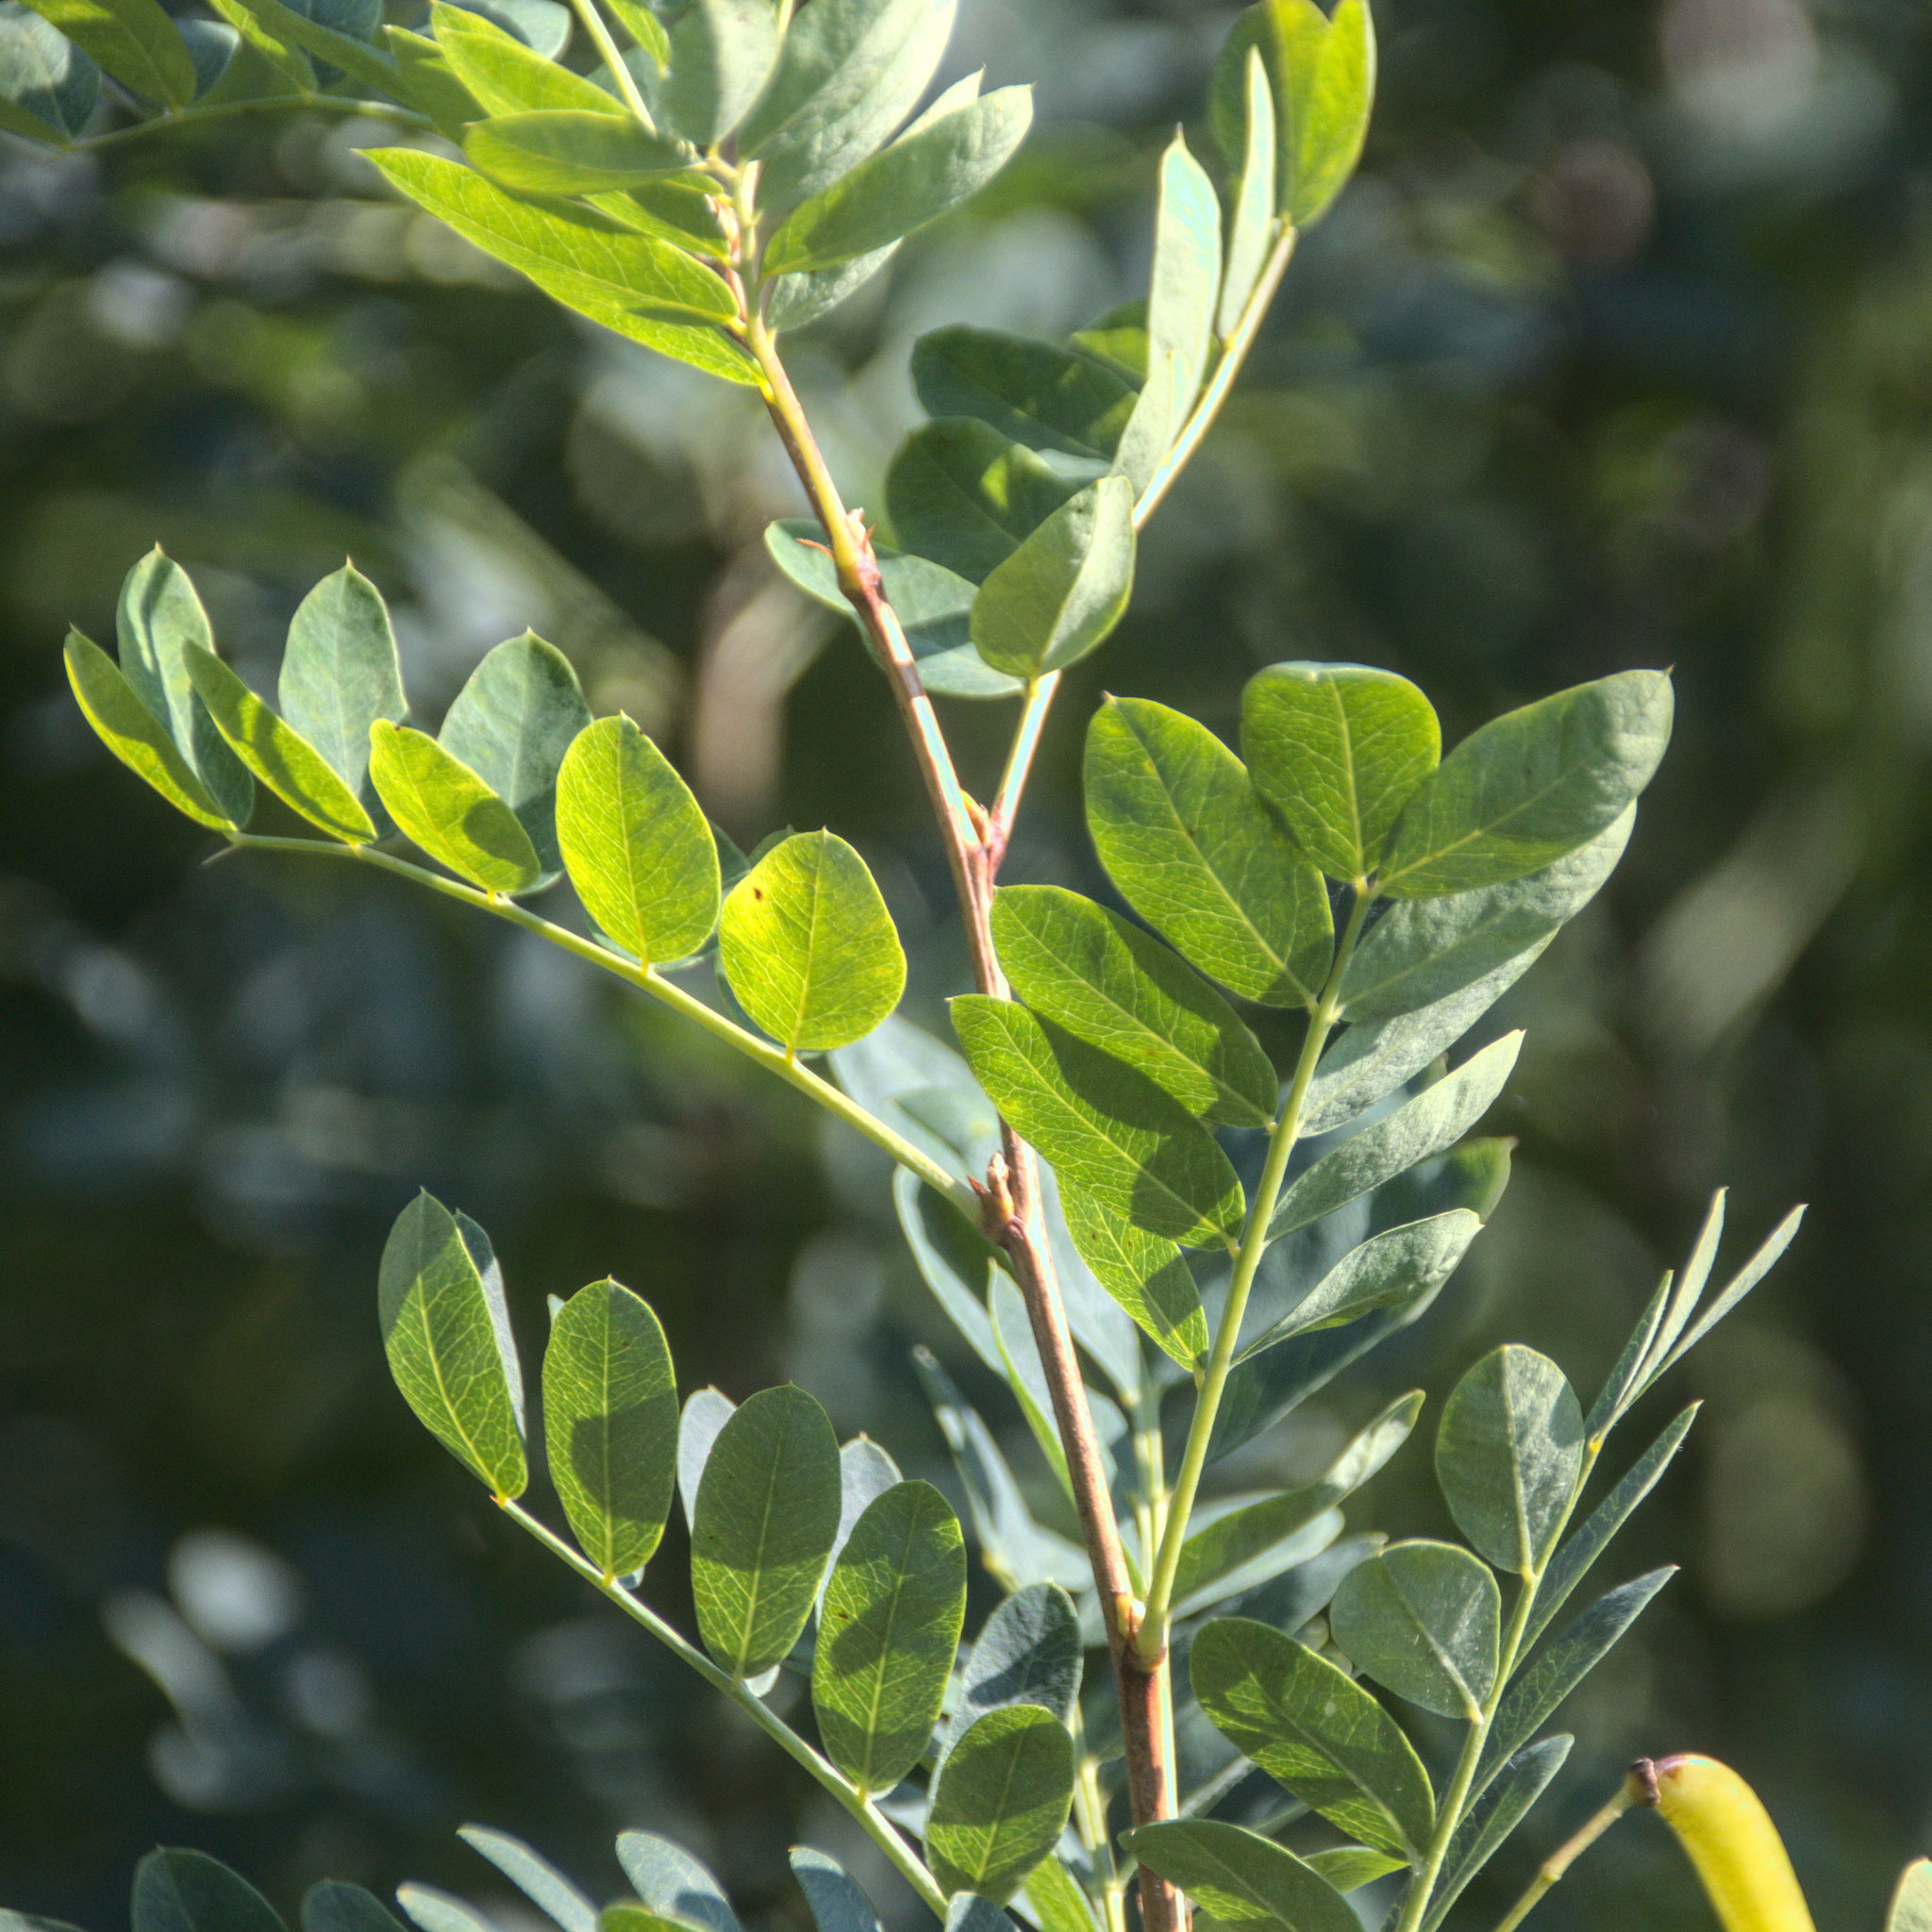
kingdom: Plantae
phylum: Tracheophyta
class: Magnoliopsida
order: Fabales
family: Fabaceae
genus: Caragana
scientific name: Caragana arborescens
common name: Siberian peashrub
